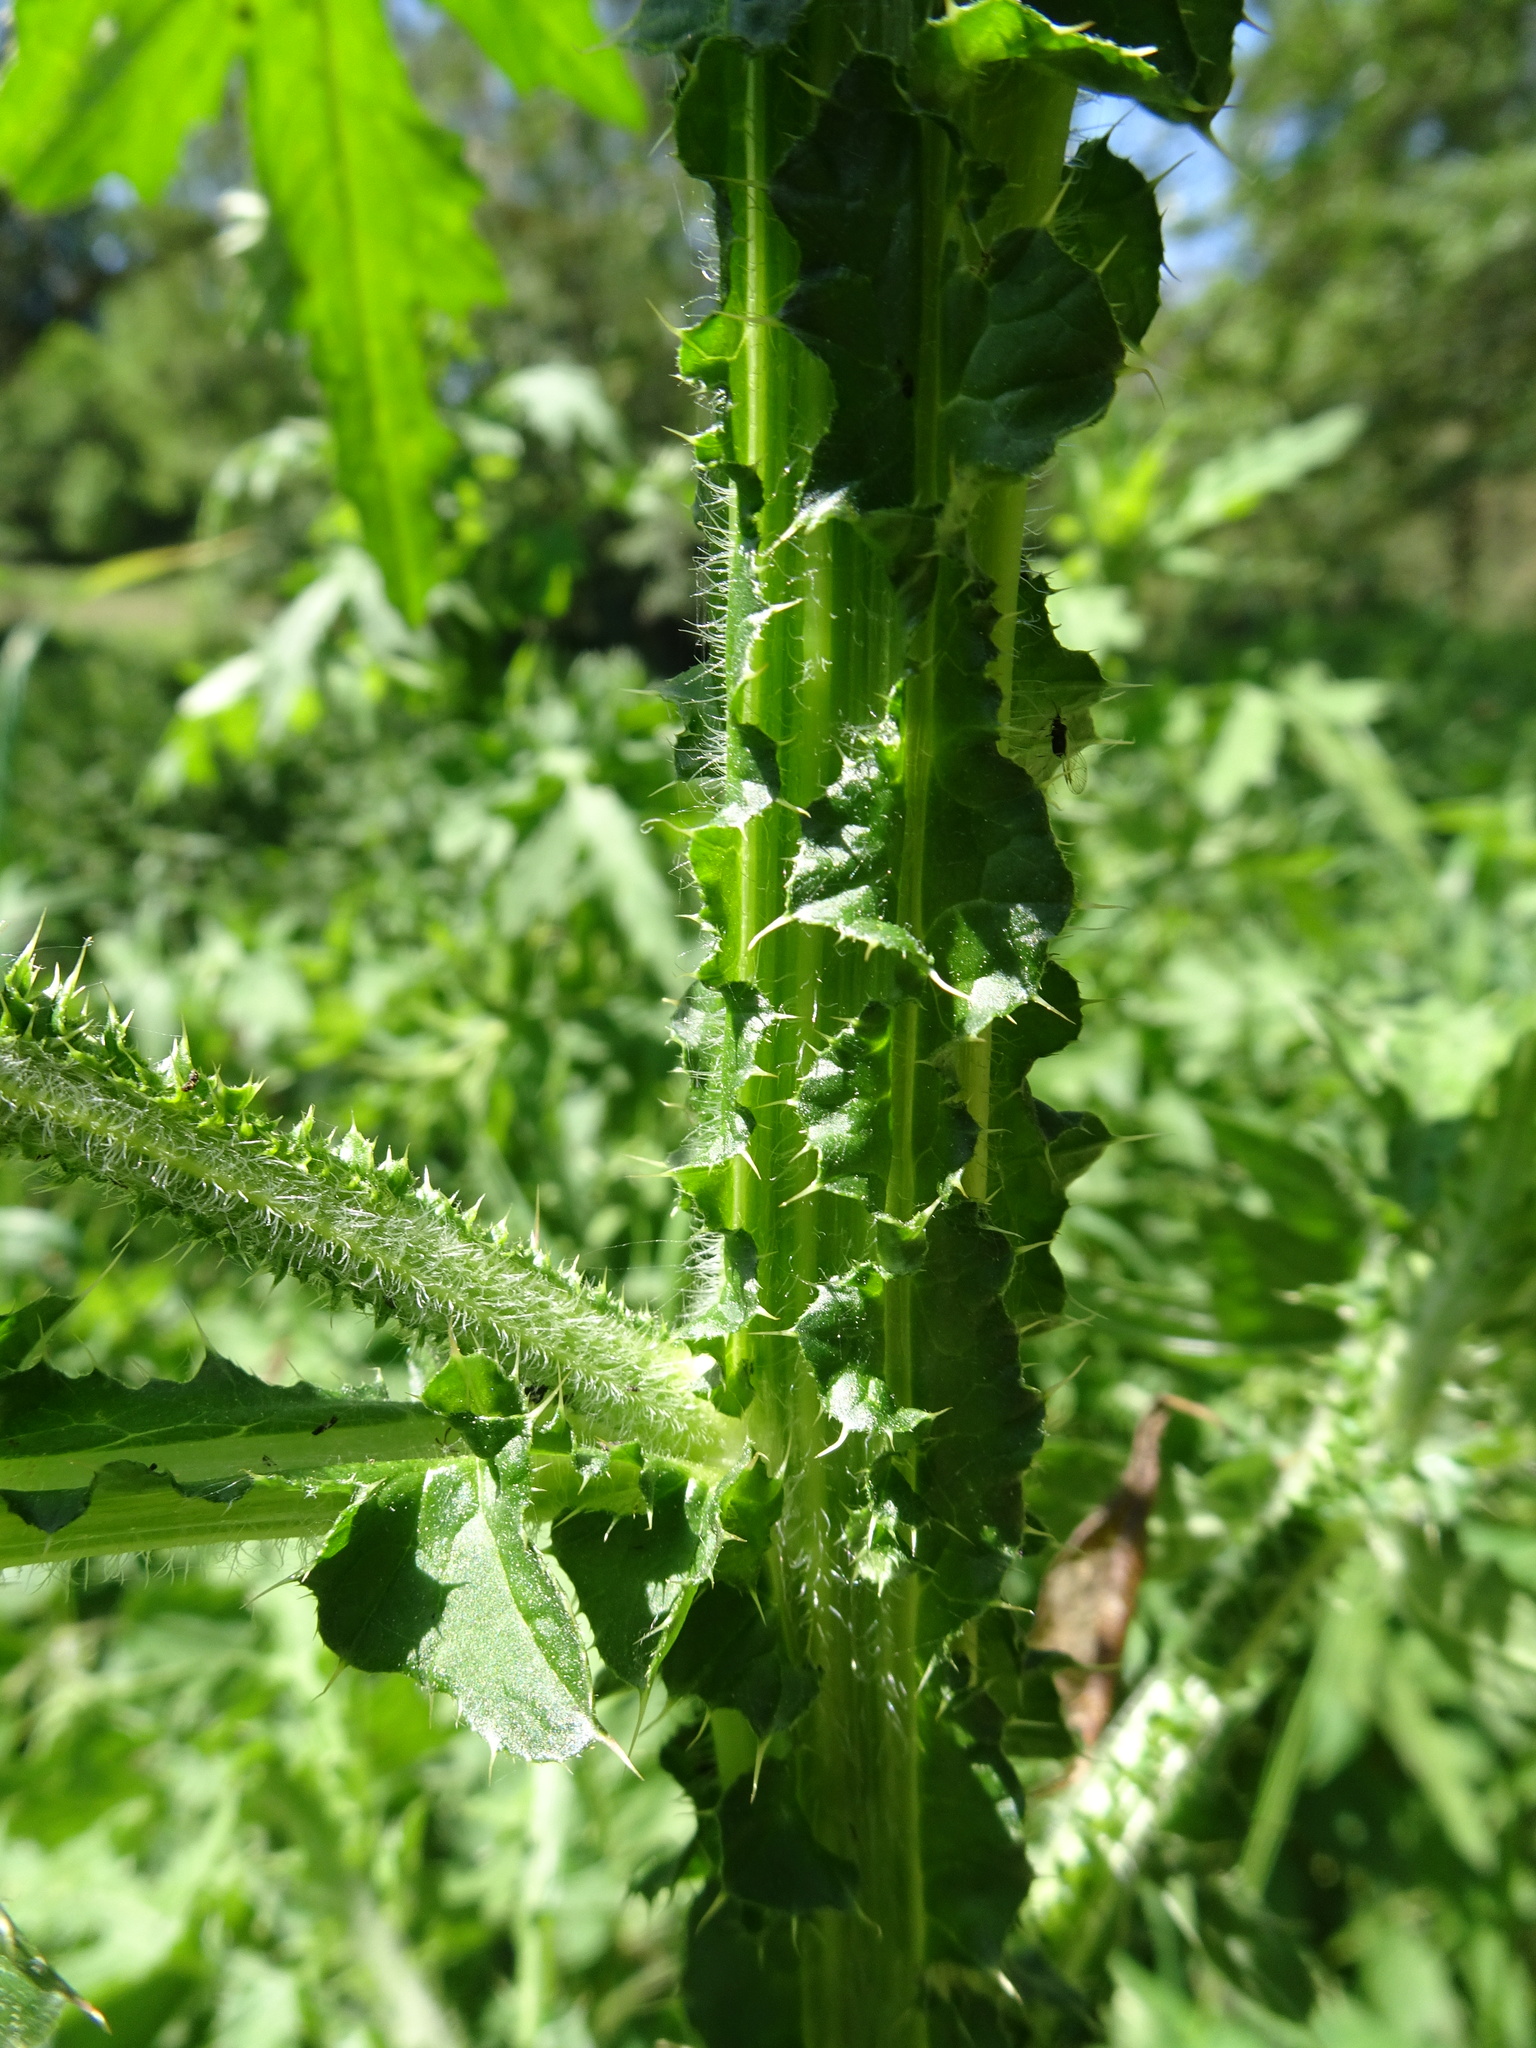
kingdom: Plantae
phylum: Tracheophyta
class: Magnoliopsida
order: Asterales
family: Asteraceae
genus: Carduus
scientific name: Carduus crispus
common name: Welted thistle
